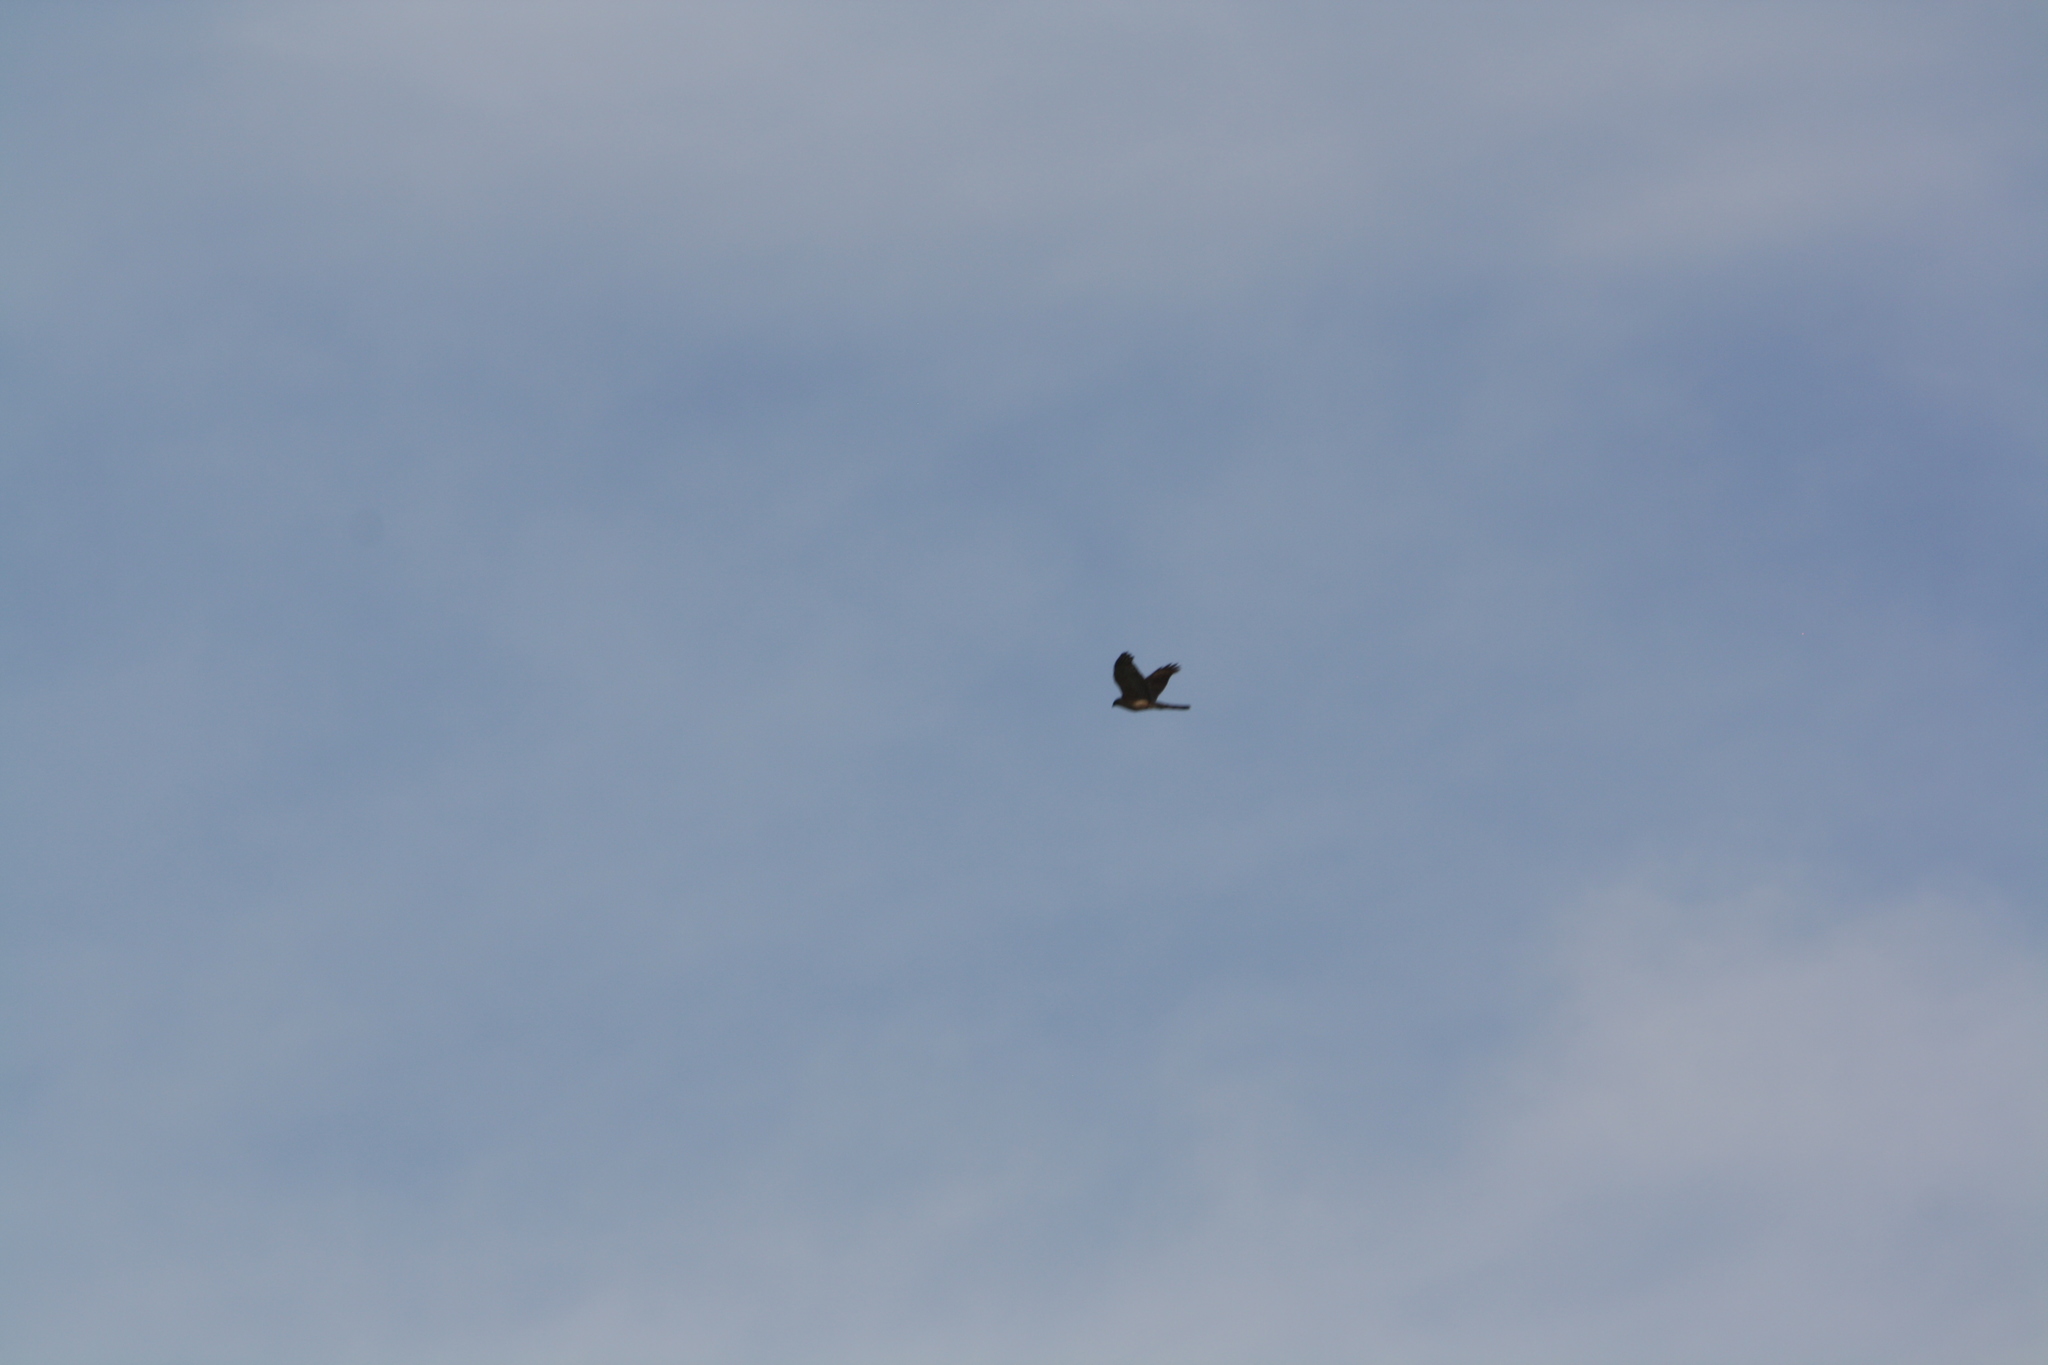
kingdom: Animalia
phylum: Chordata
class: Aves
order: Accipitriformes
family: Accipitridae
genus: Accipiter
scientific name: Accipiter cooperii
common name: Cooper's hawk
